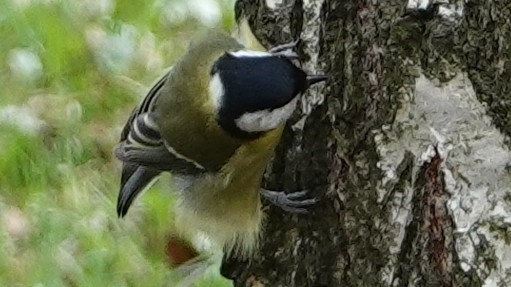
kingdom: Animalia
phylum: Chordata
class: Aves
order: Passeriformes
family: Paridae
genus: Parus
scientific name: Parus major
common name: Great tit
